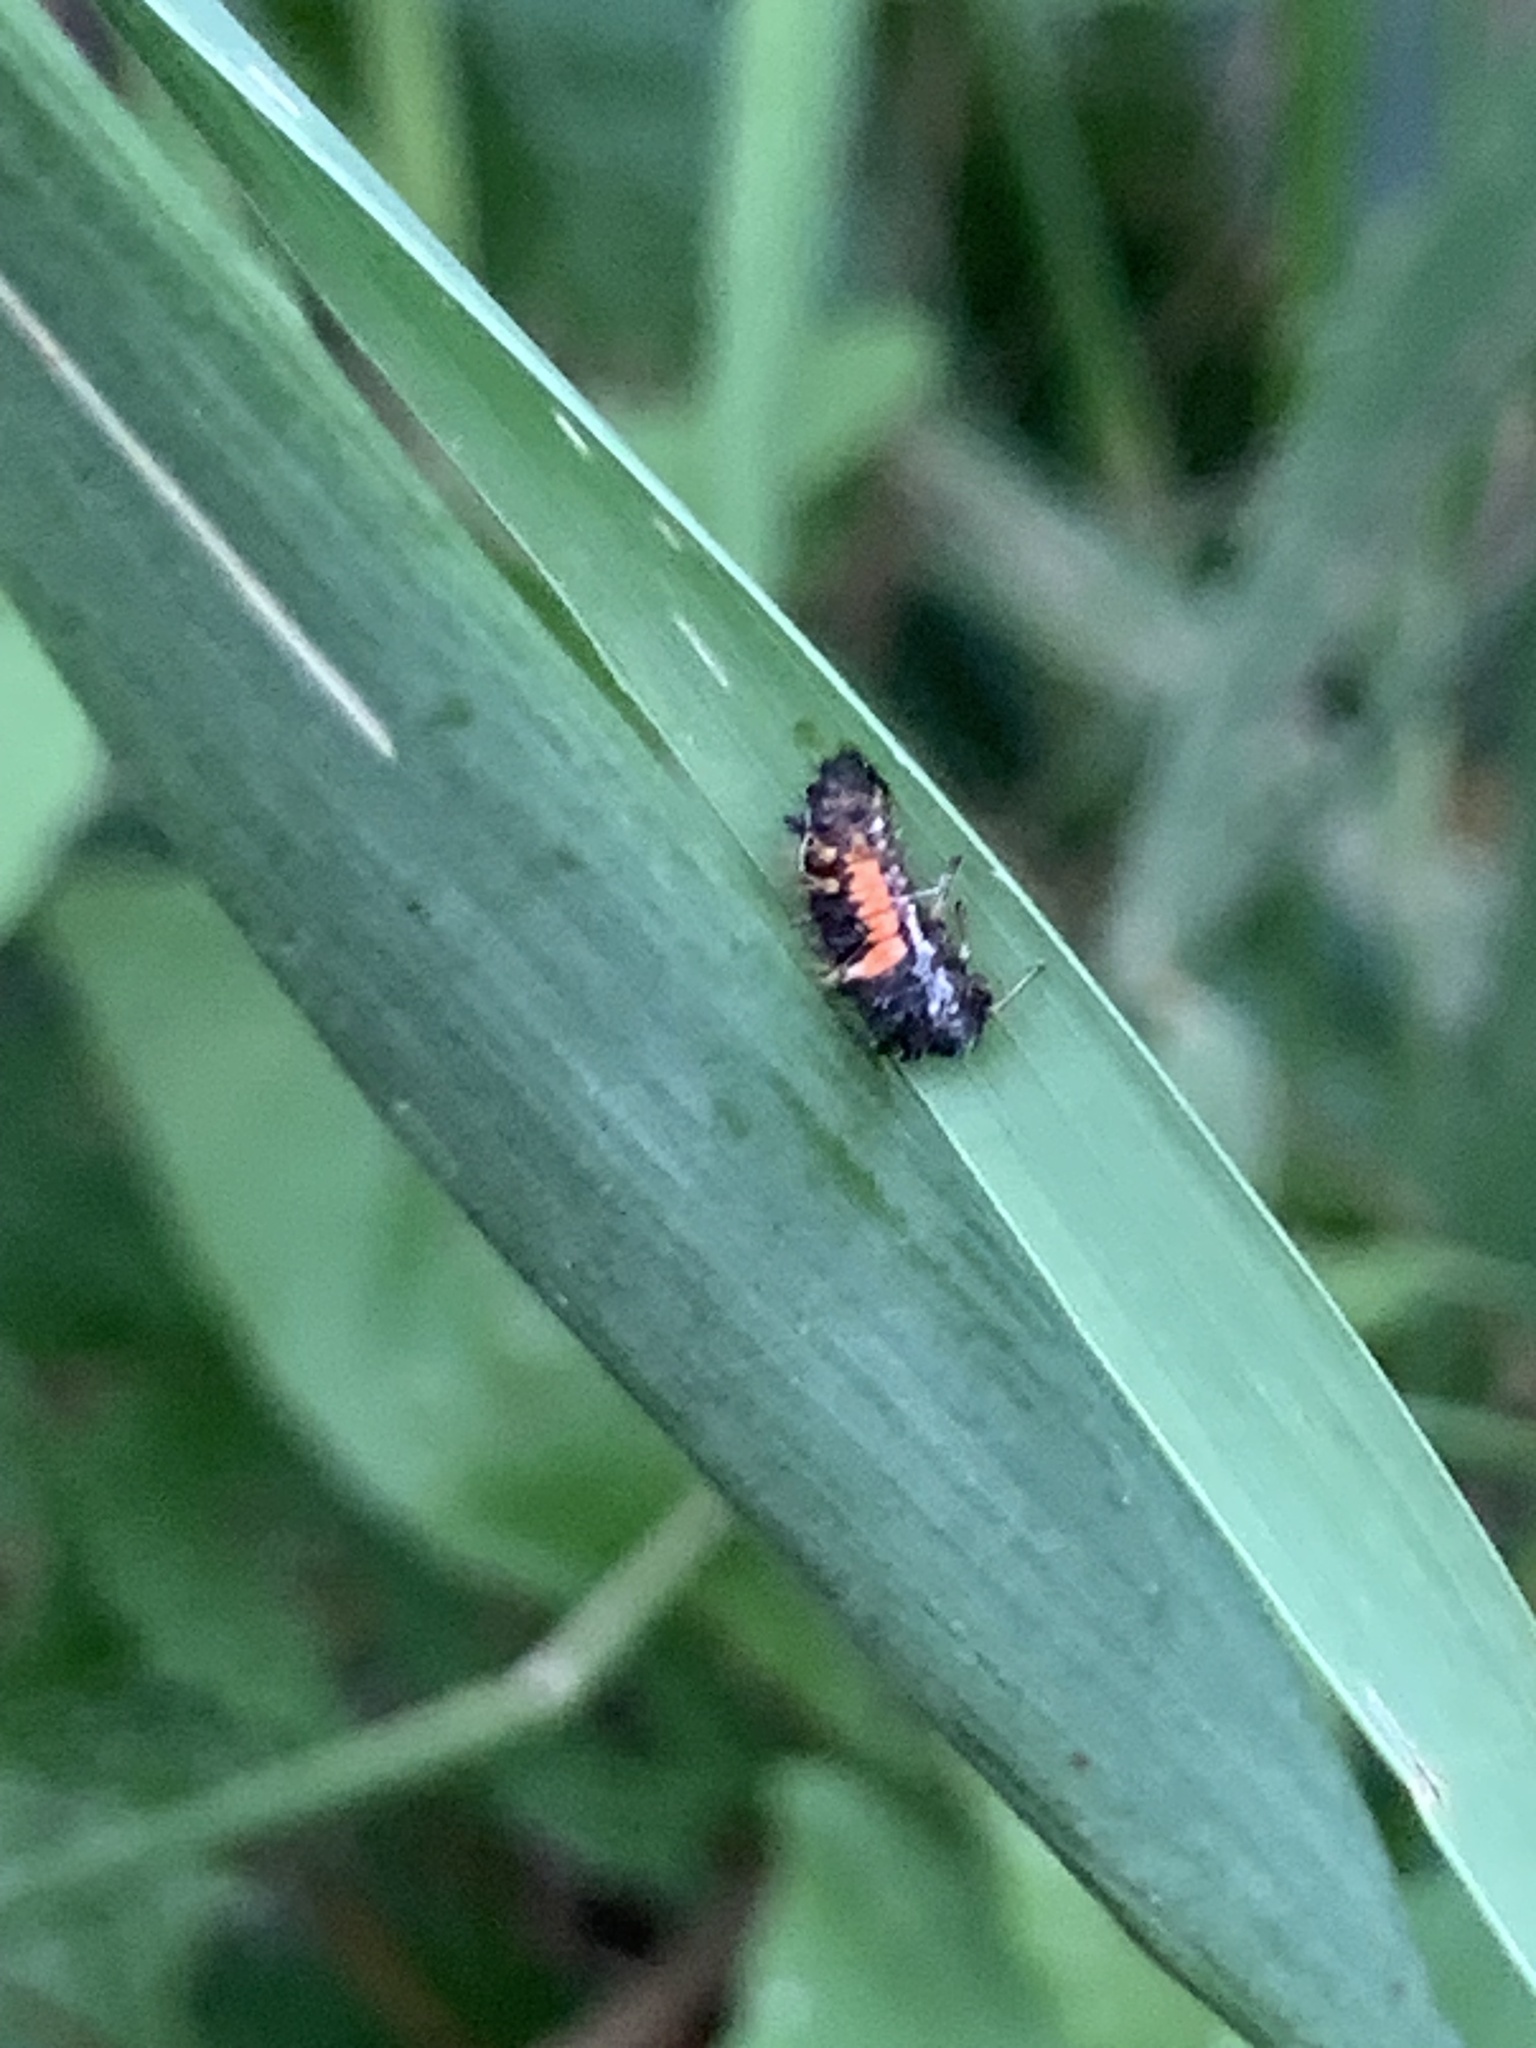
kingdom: Animalia
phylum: Arthropoda
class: Insecta
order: Coleoptera
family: Coccinellidae
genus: Harmonia
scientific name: Harmonia axyridis
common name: Harlequin ladybird
